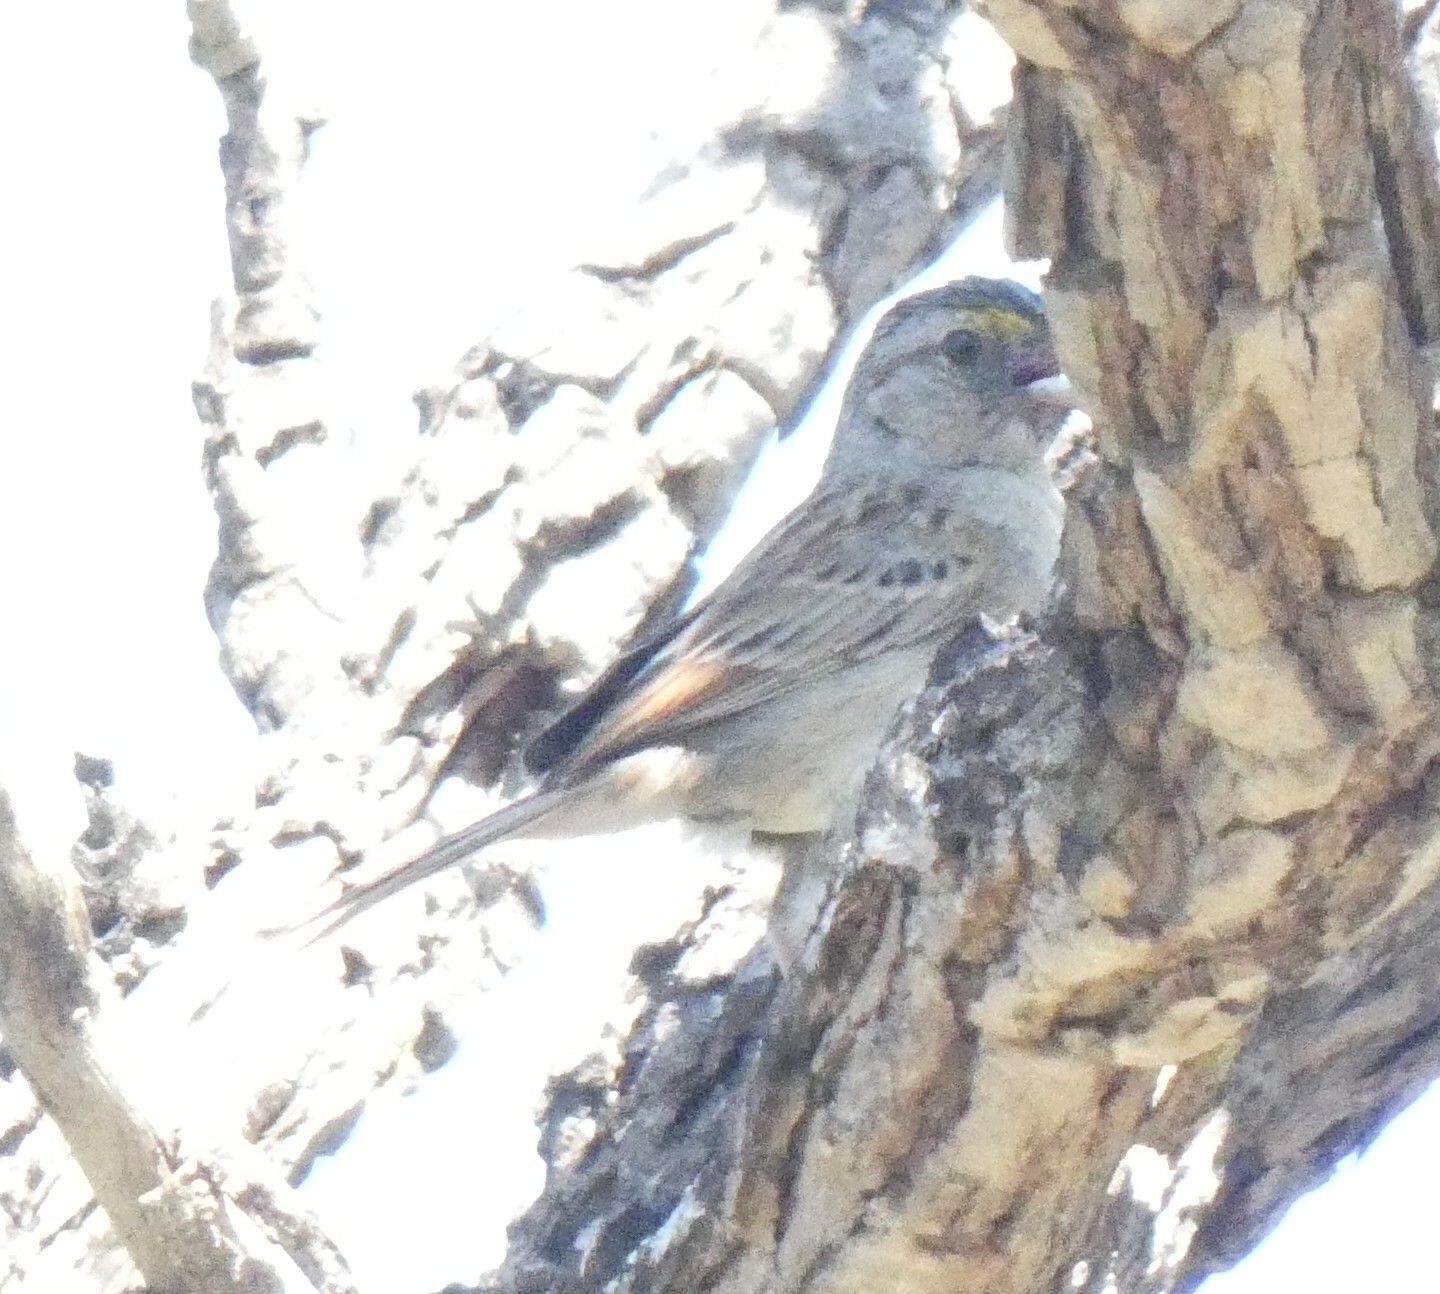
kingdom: Animalia
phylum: Chordata
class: Aves
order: Passeriformes
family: Passerellidae
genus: Ammodramus
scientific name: Ammodramus humeralis
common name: Grassland sparrow
